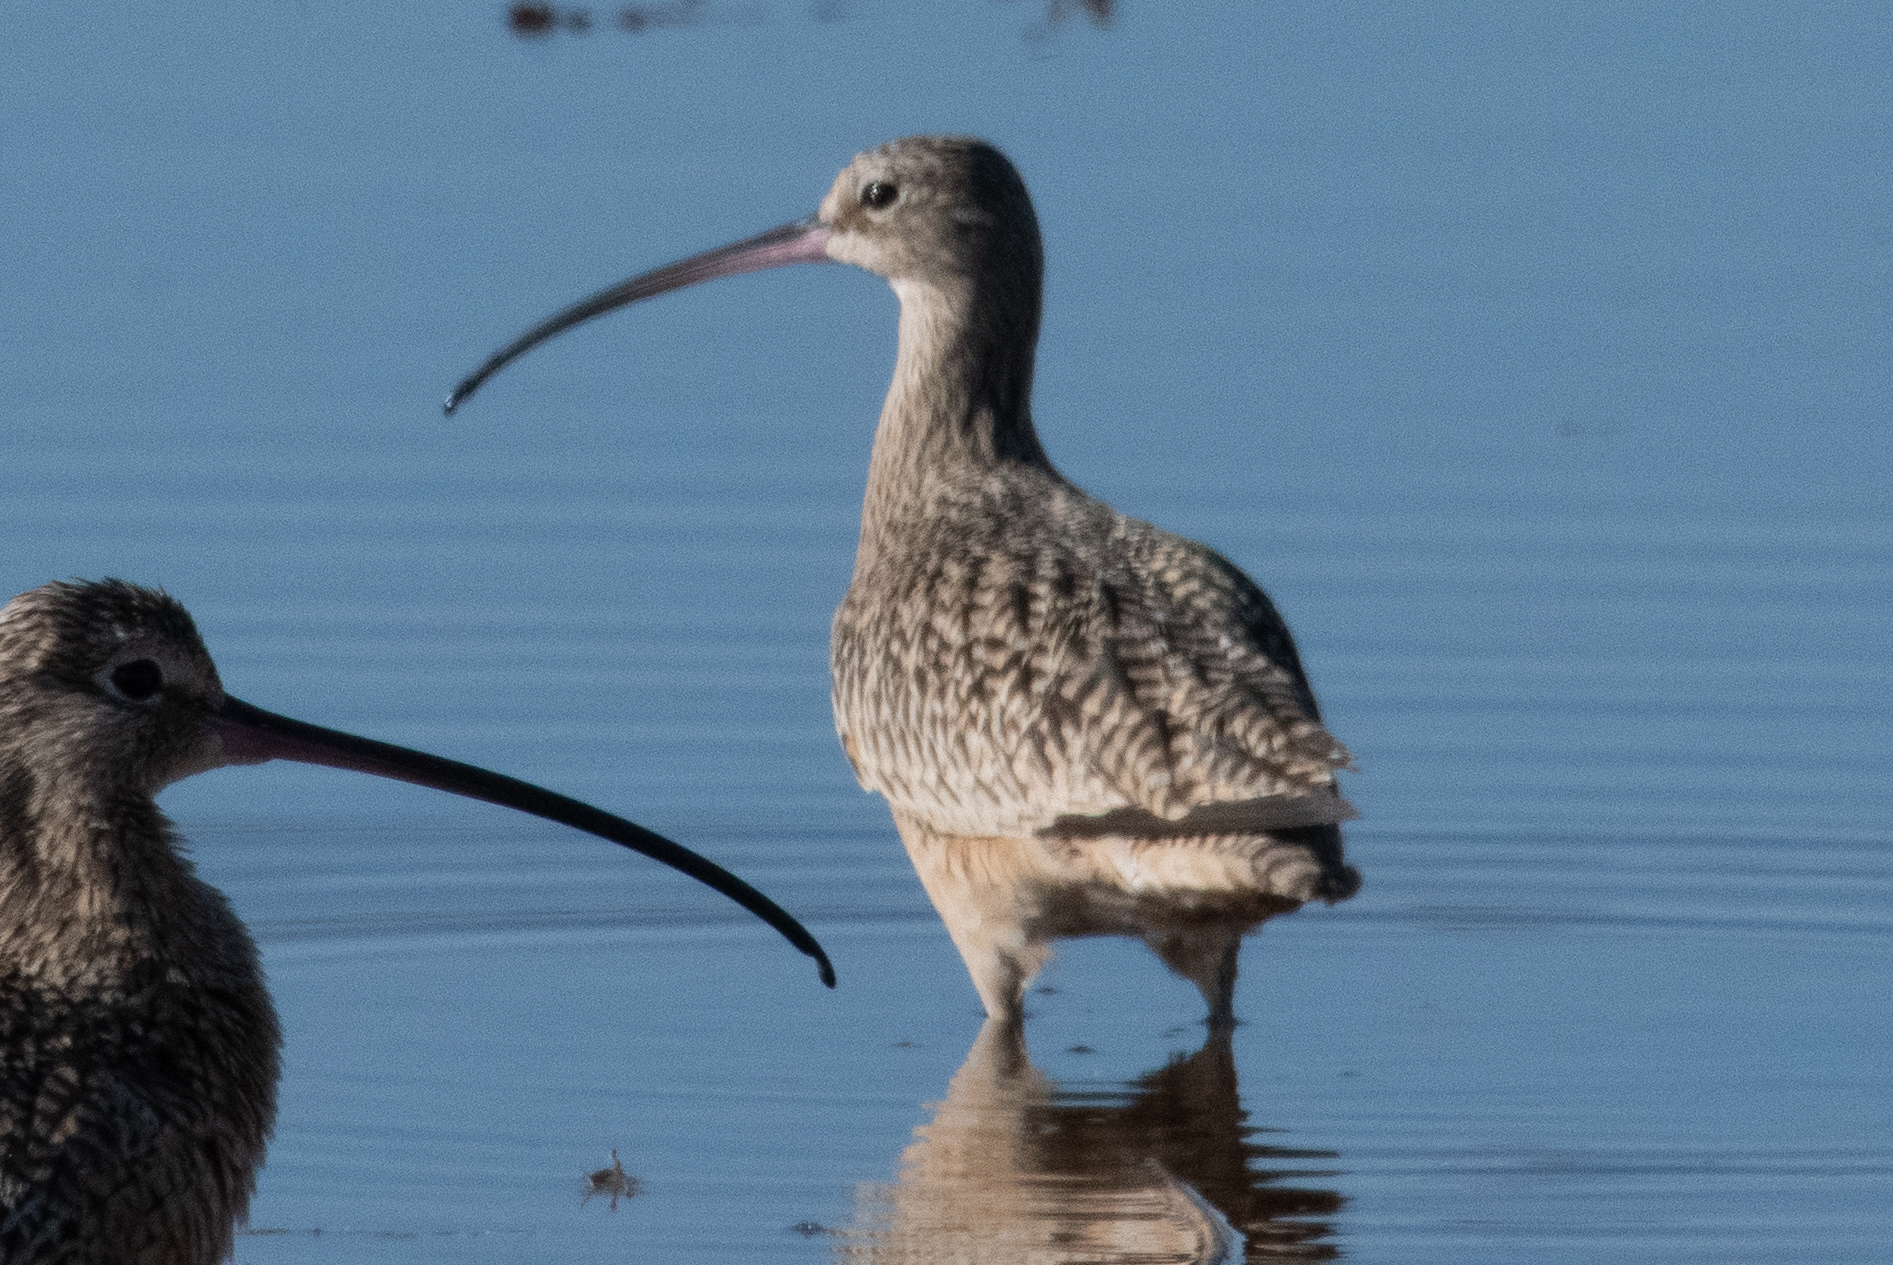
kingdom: Animalia
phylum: Chordata
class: Aves
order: Charadriiformes
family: Scolopacidae
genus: Numenius
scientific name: Numenius americanus
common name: Long-billed curlew
